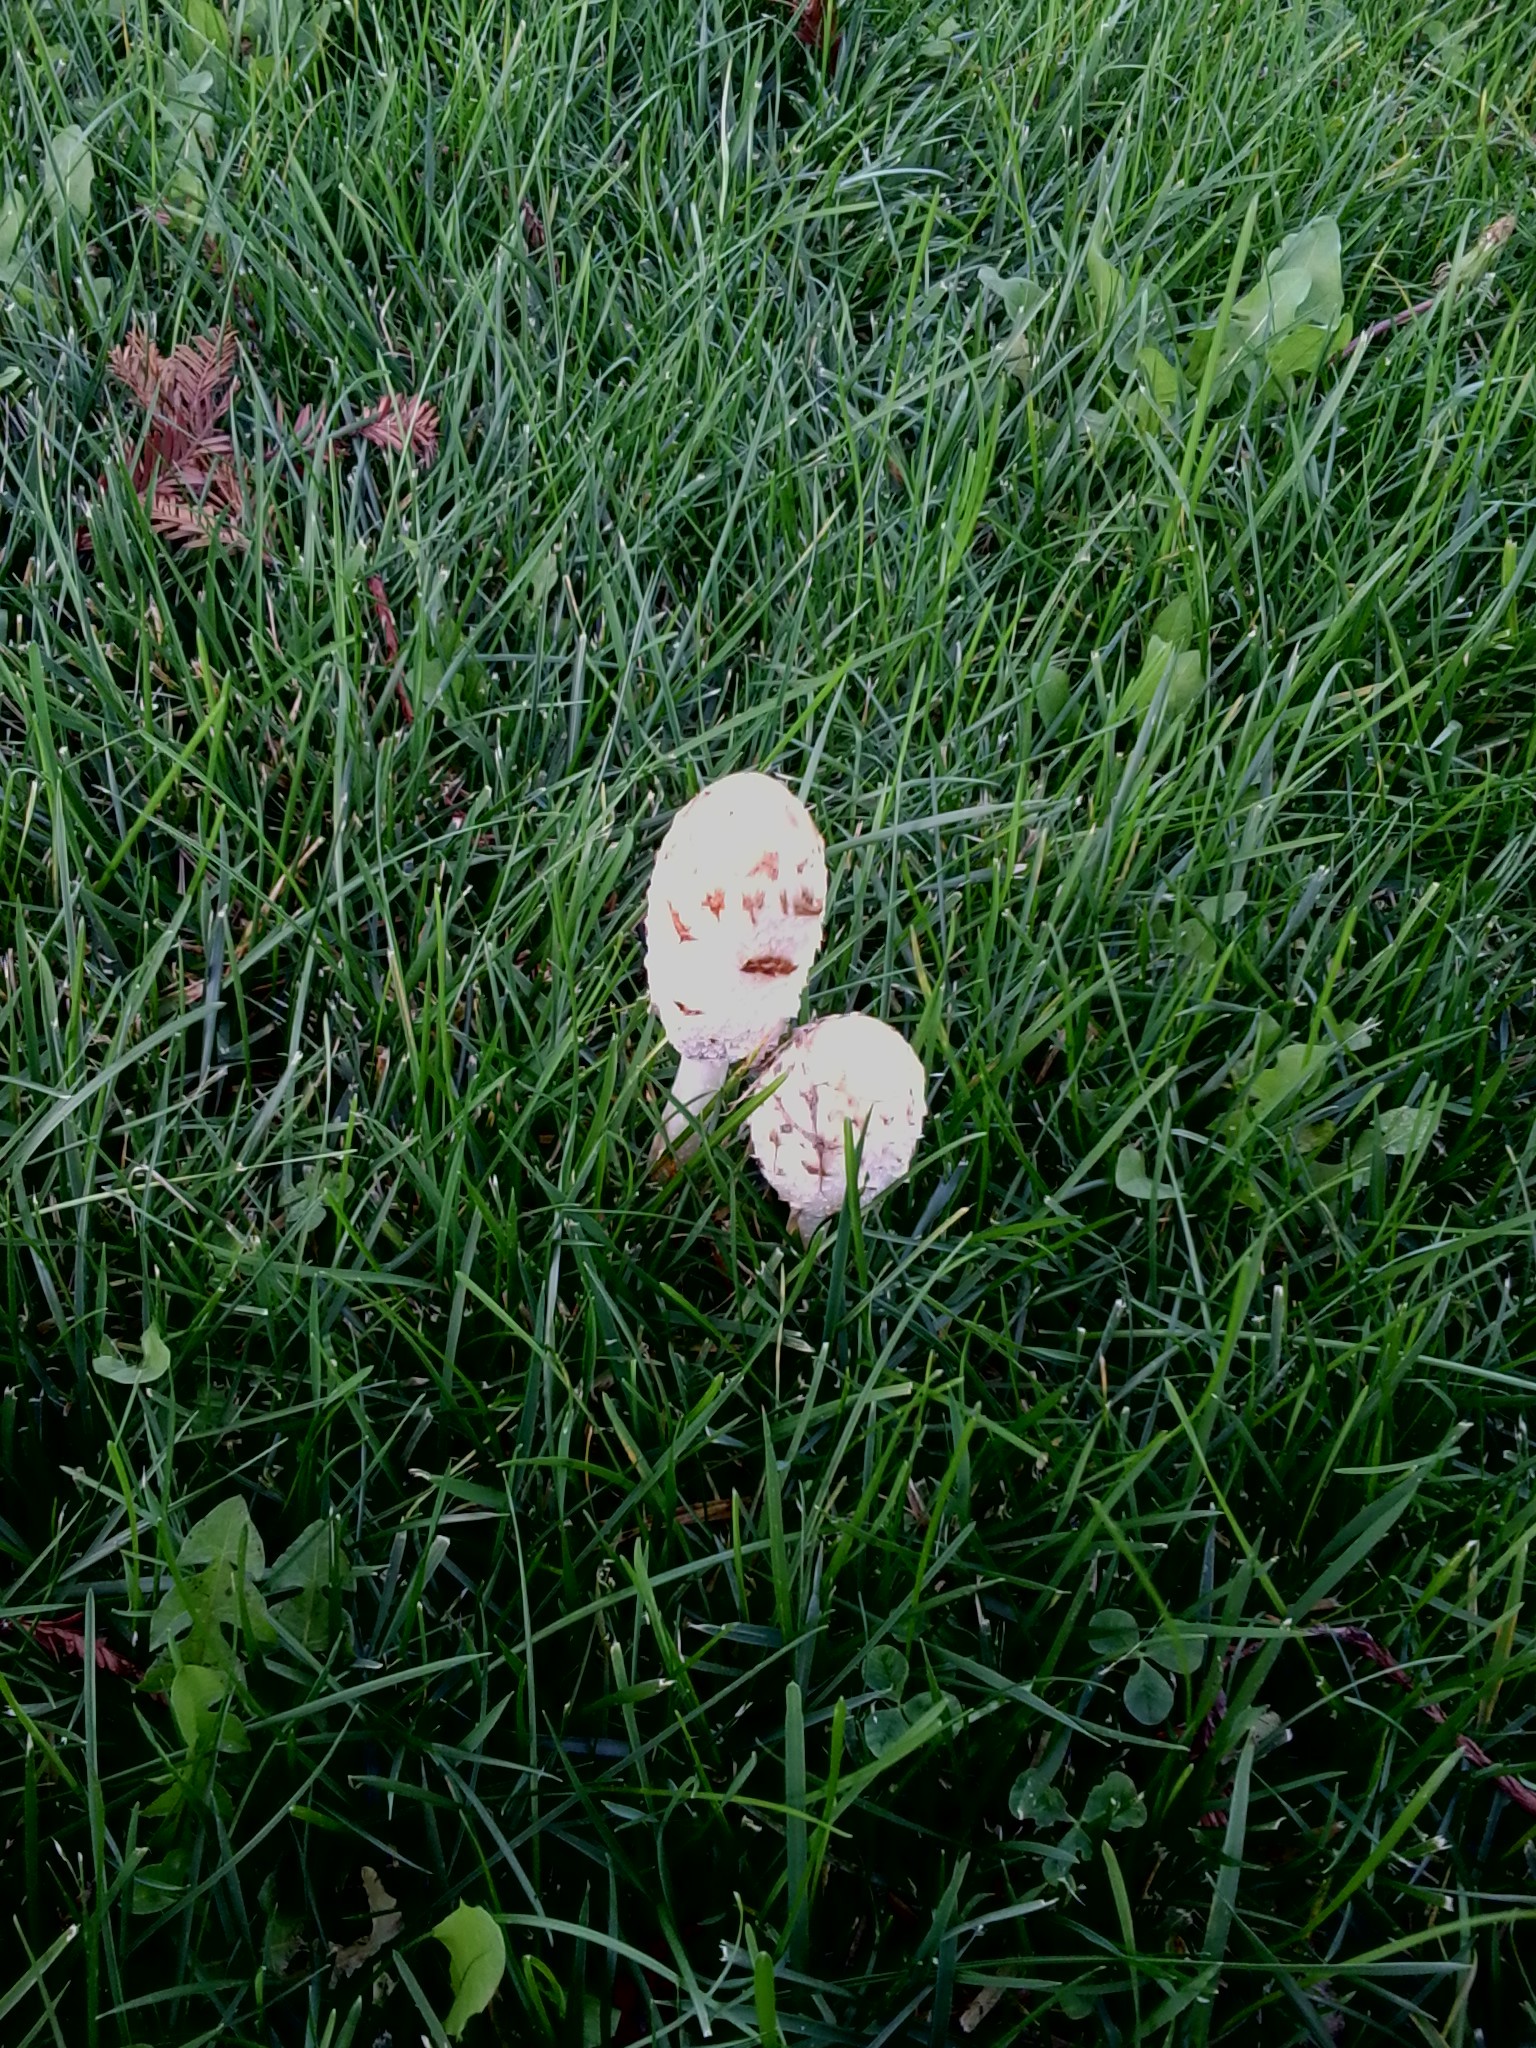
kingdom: Fungi
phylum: Basidiomycota
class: Agaricomycetes
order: Agaricales
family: Agaricaceae
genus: Coprinus
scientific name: Coprinus comatus
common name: Lawyer's wig
